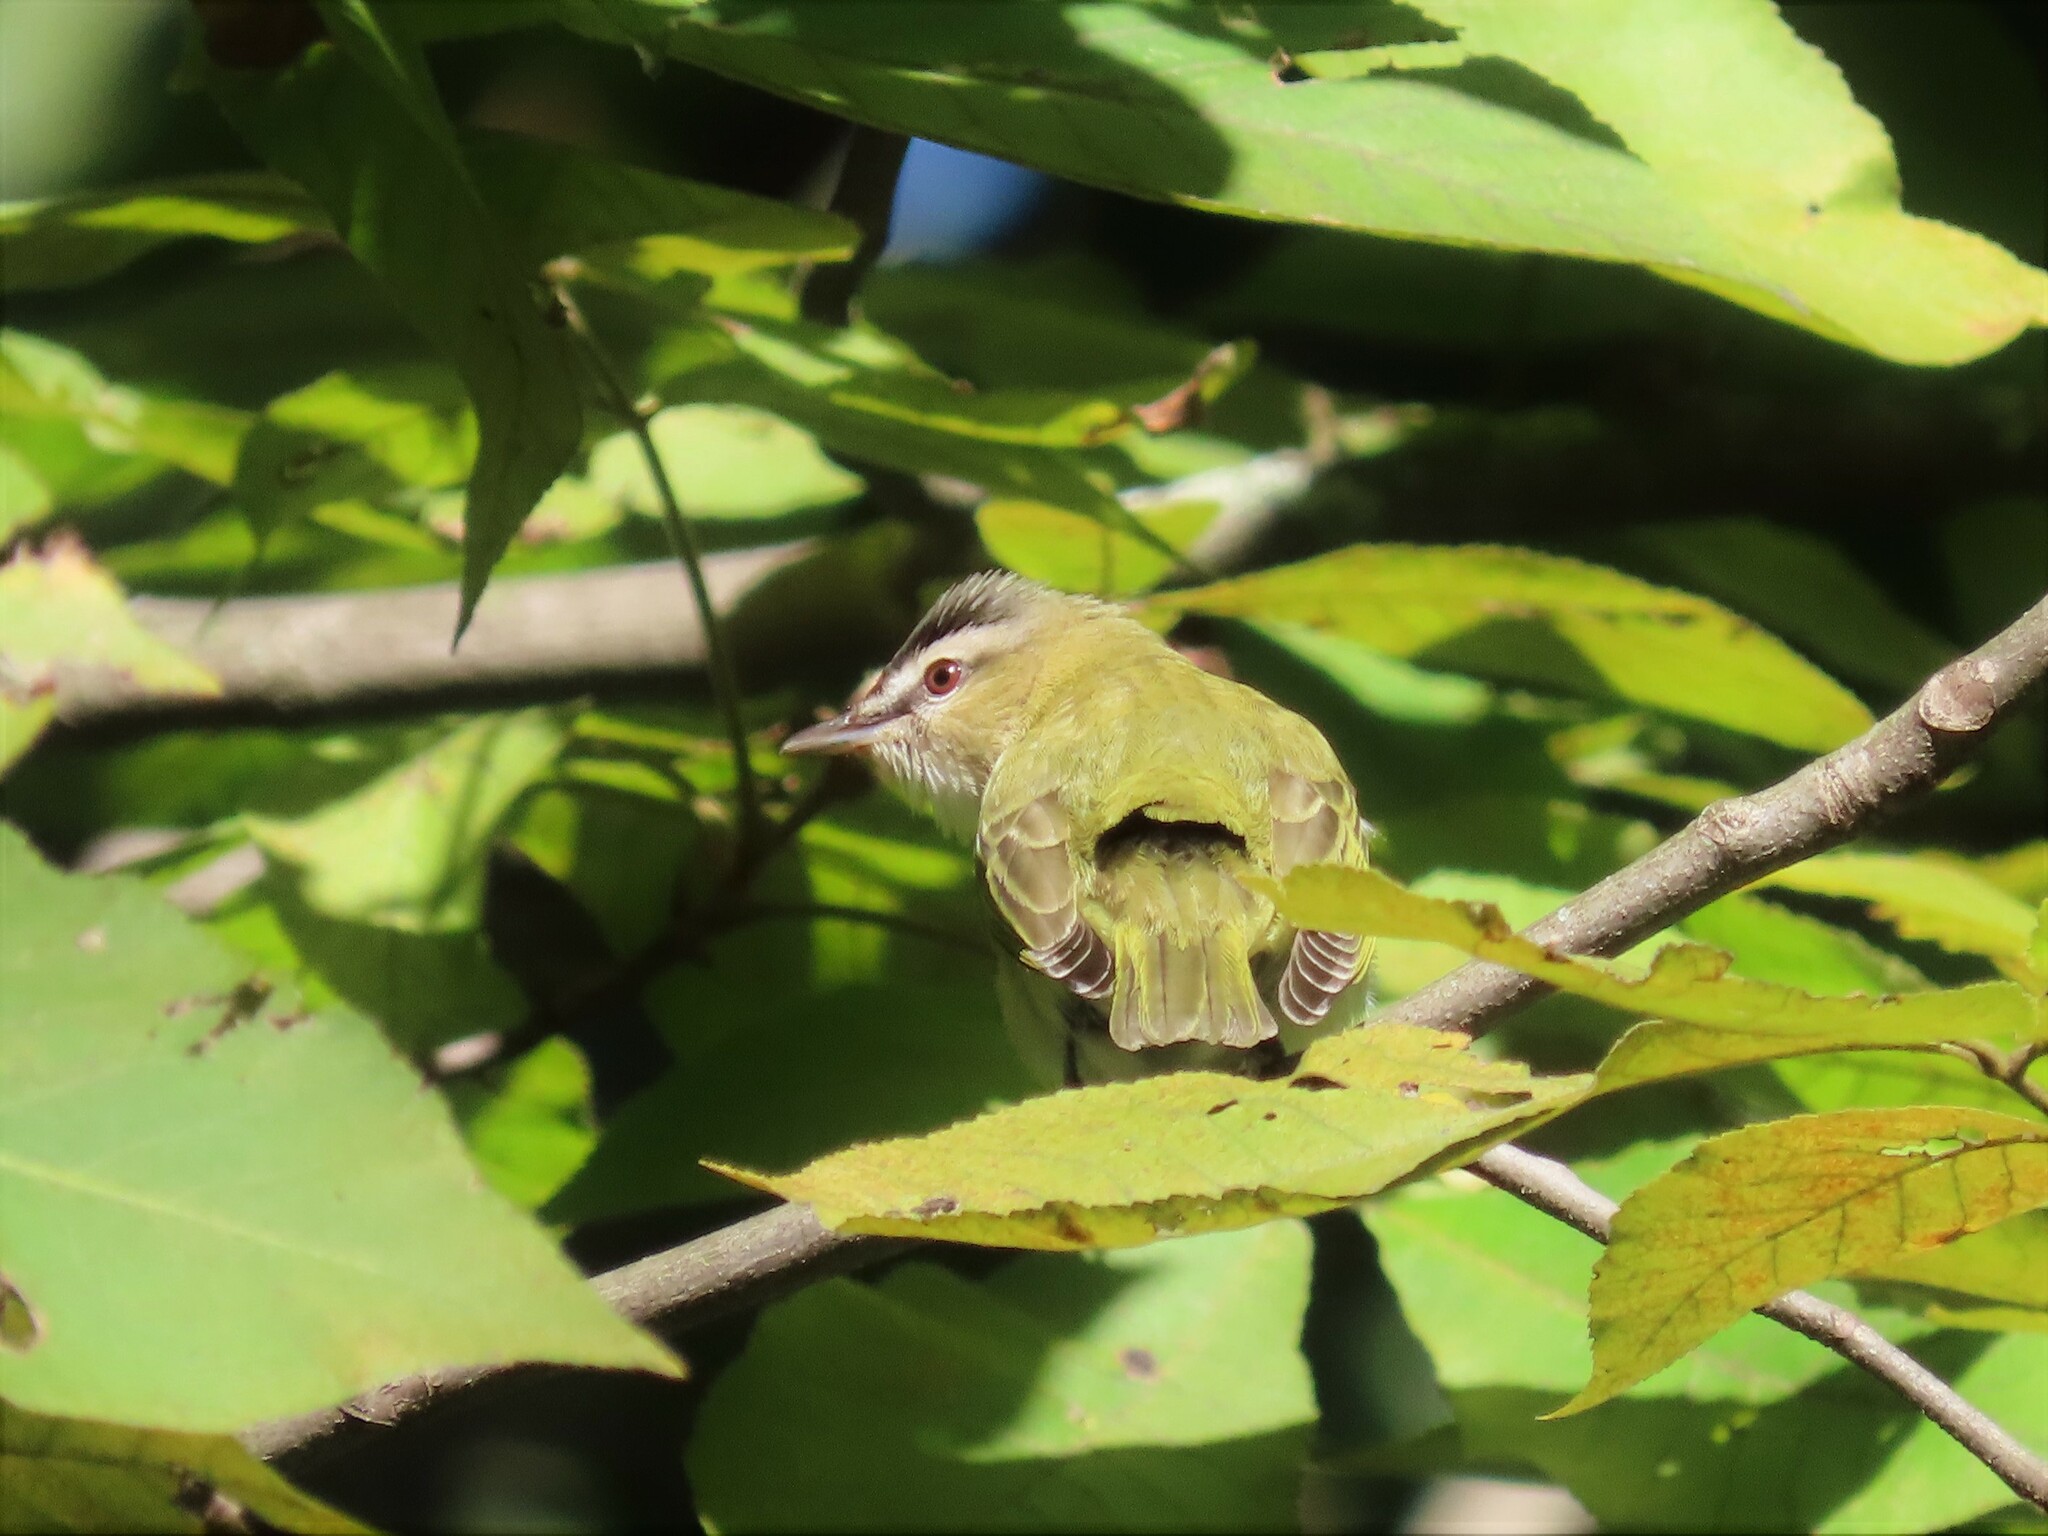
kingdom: Animalia
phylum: Chordata
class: Aves
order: Passeriformes
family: Vireonidae
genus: Vireo
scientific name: Vireo olivaceus
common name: Red-eyed vireo
